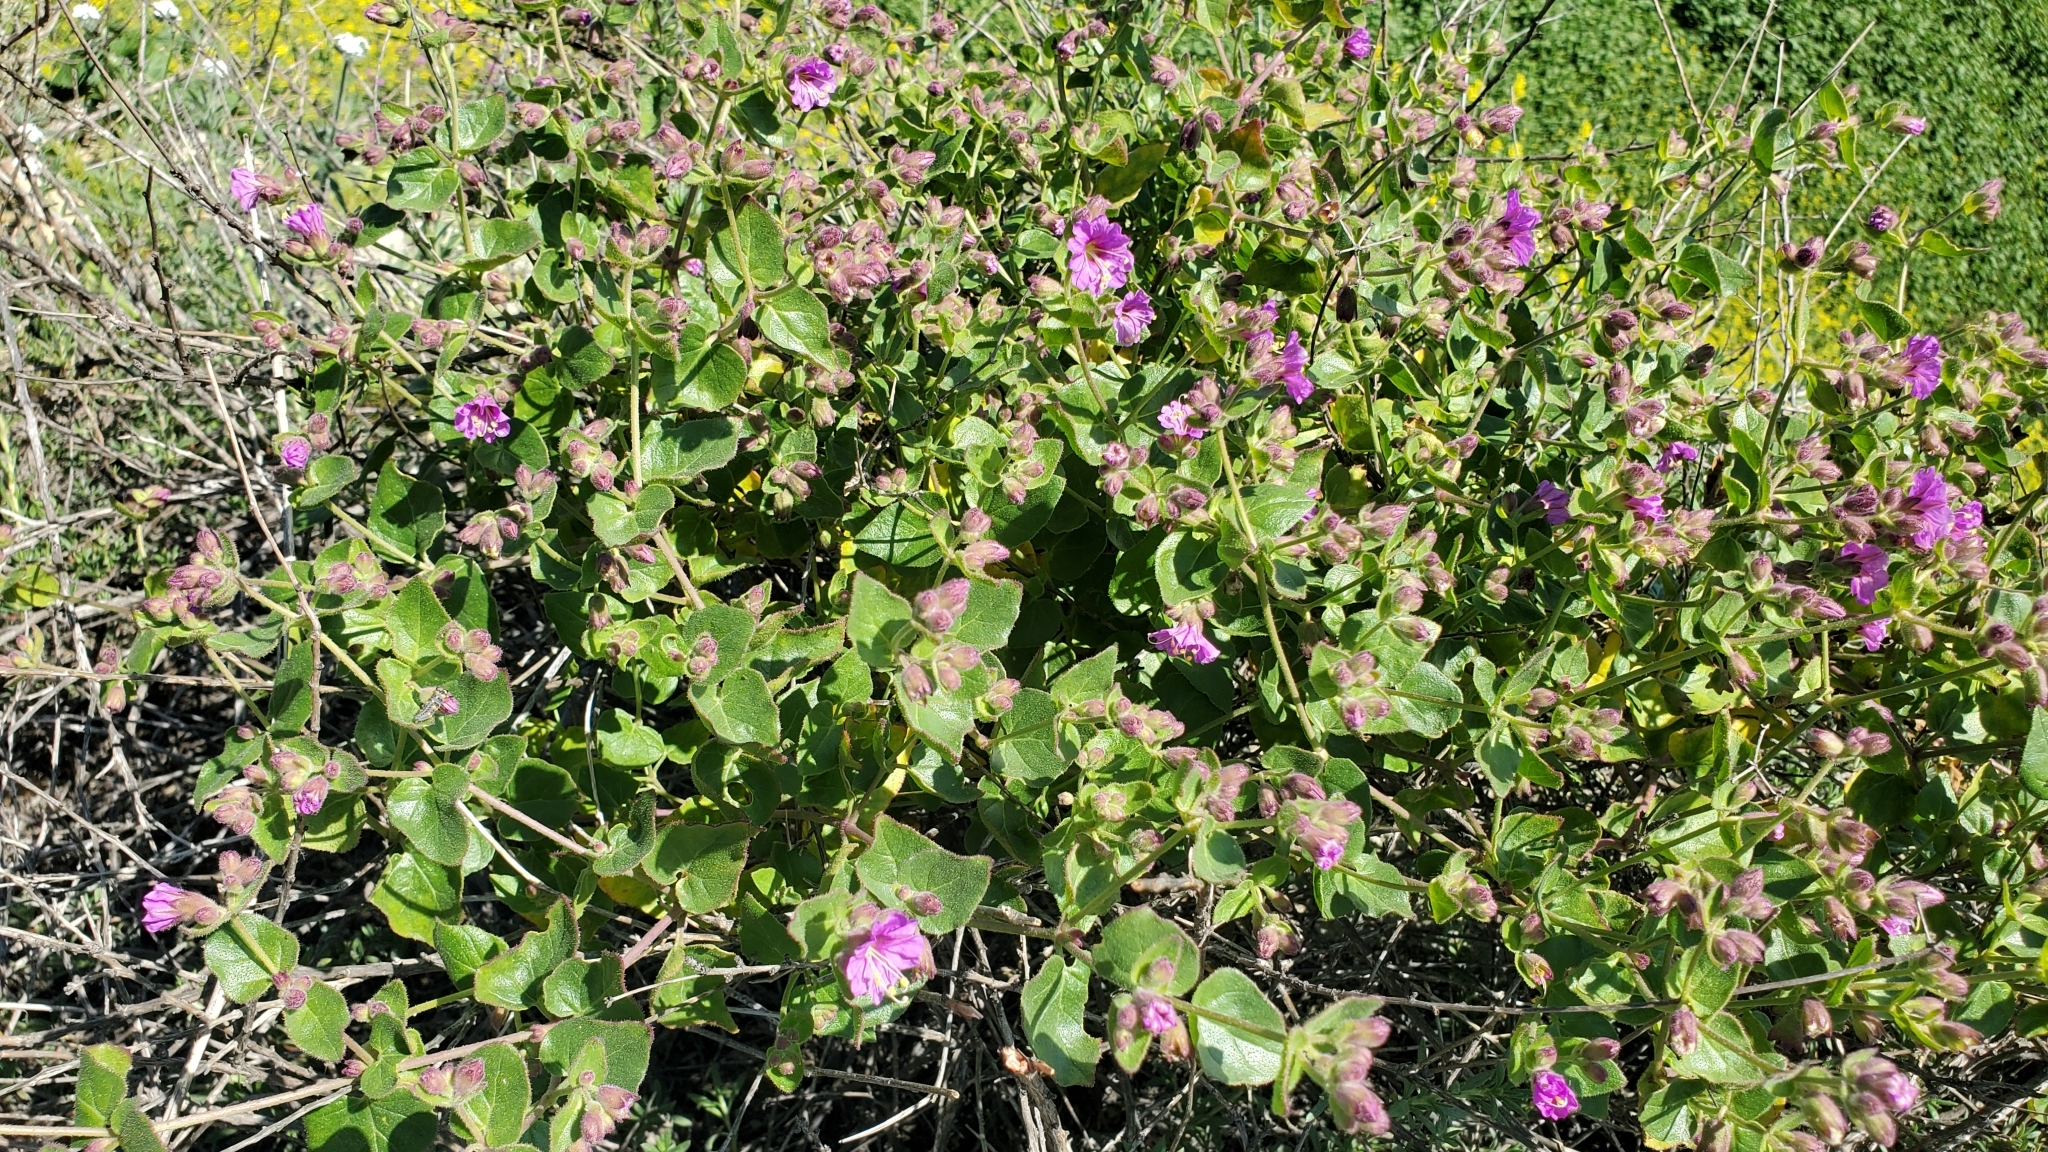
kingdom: Plantae
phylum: Tracheophyta
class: Magnoliopsida
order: Caryophyllales
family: Nyctaginaceae
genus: Mirabilis
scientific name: Mirabilis laevis
